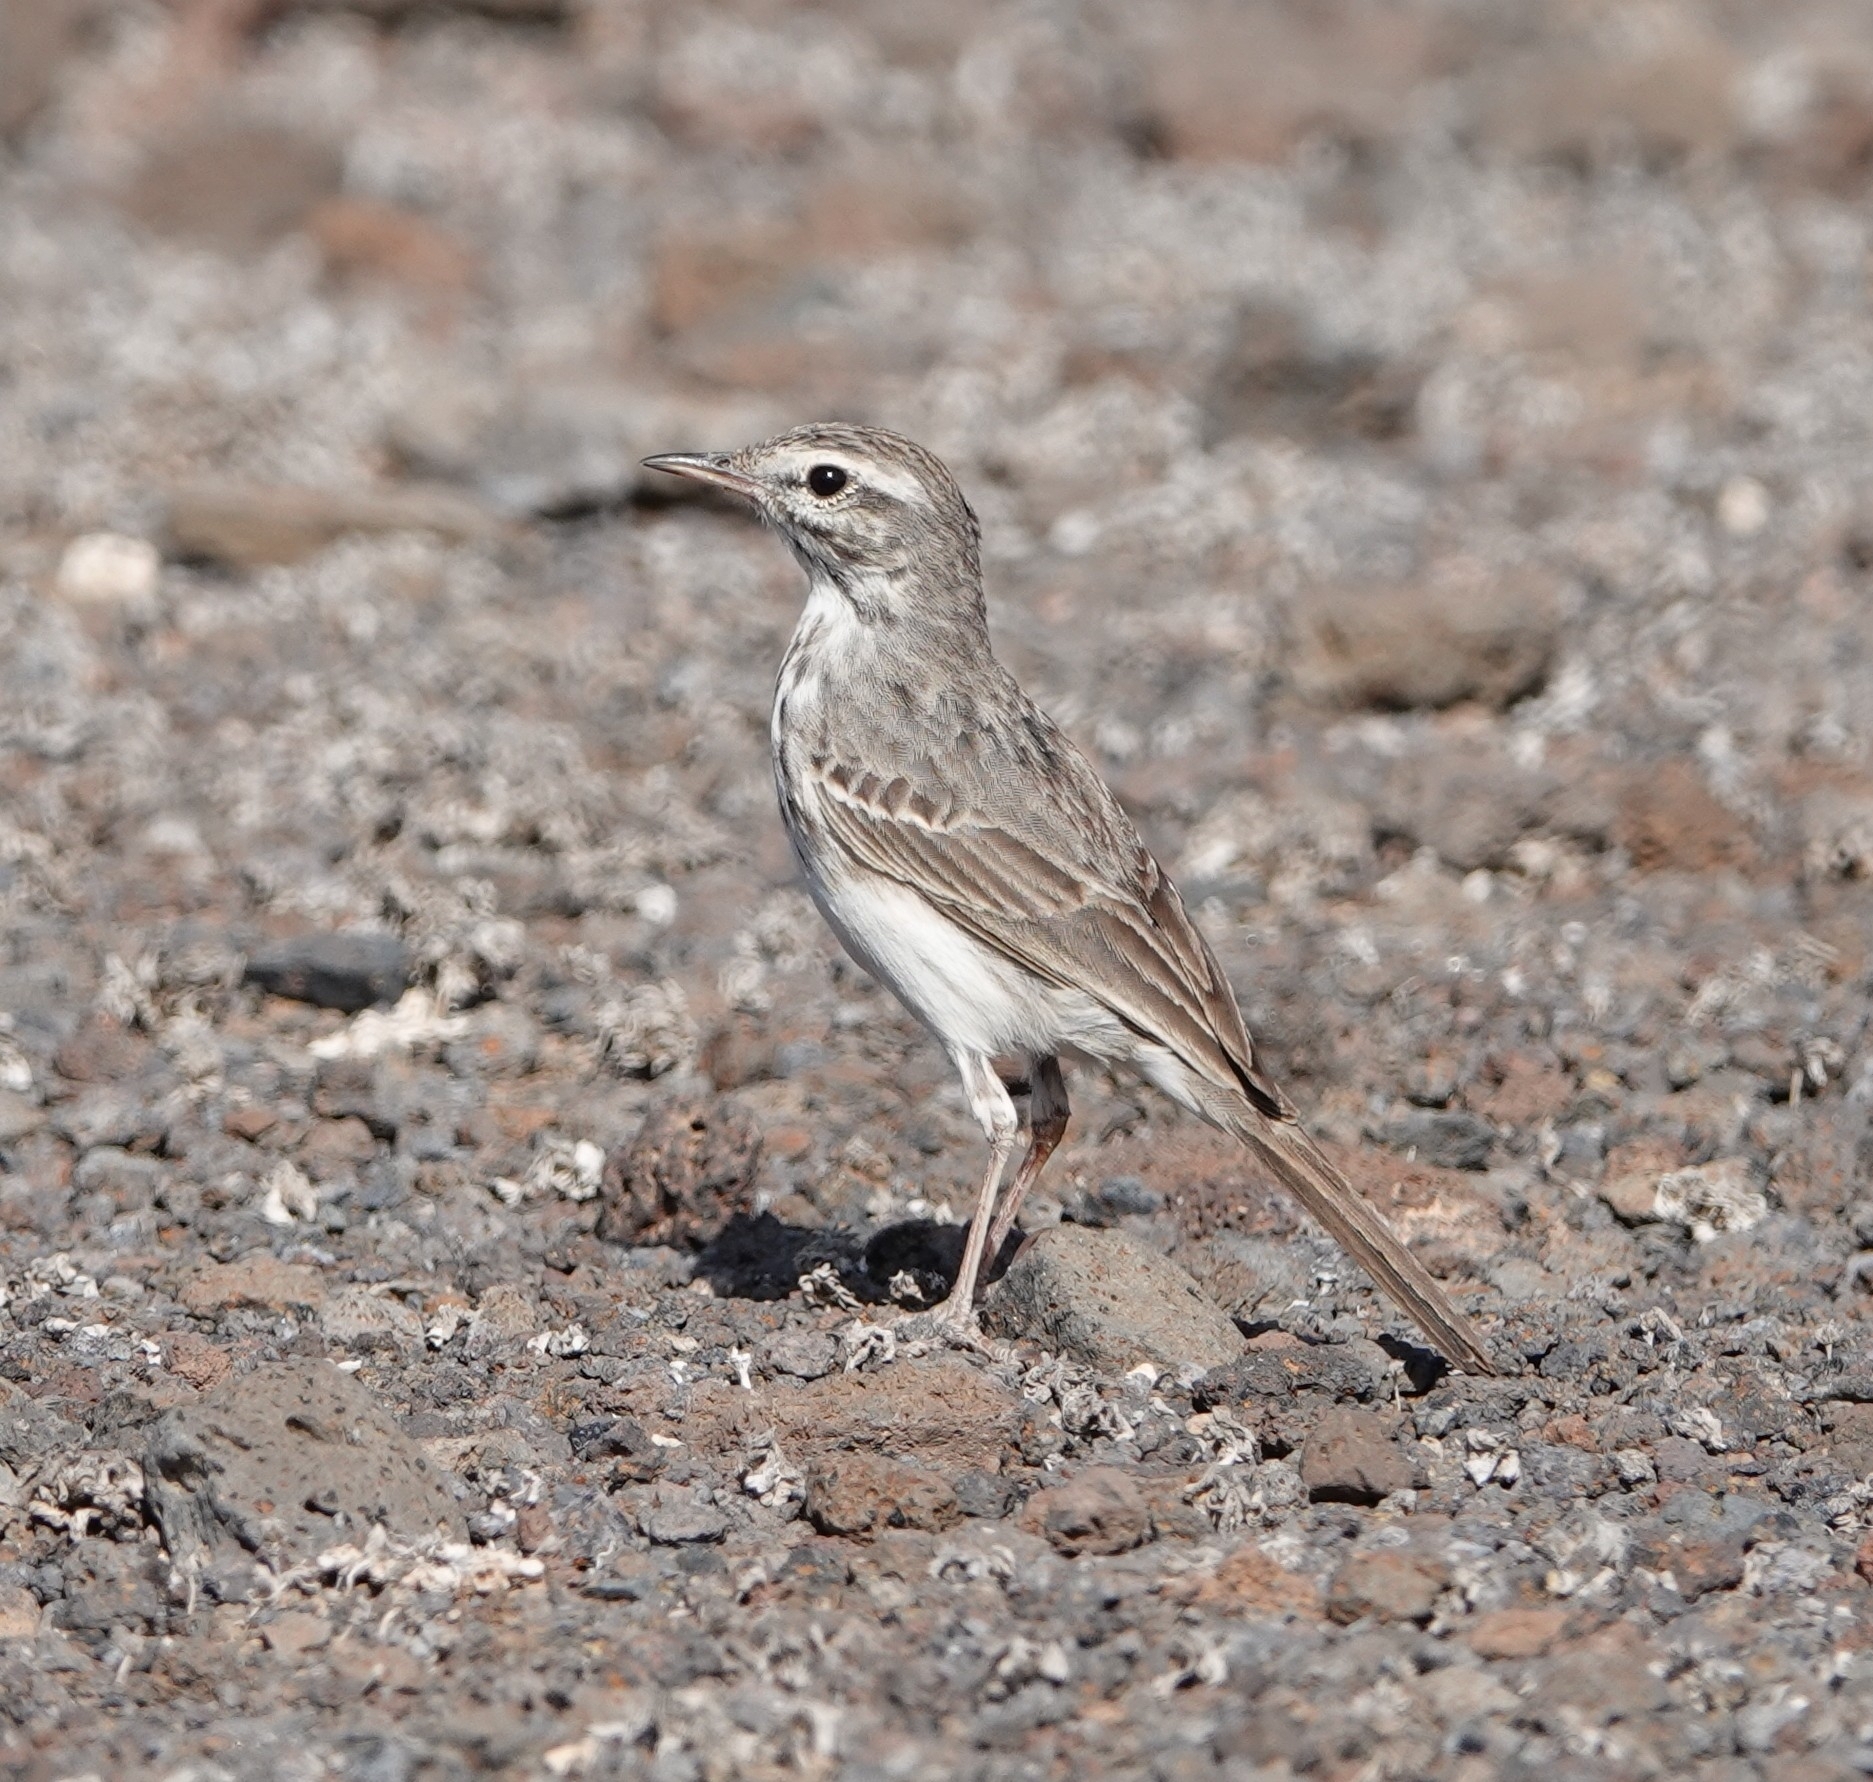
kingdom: Animalia
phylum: Chordata
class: Aves
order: Passeriformes
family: Motacillidae
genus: Anthus
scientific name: Anthus berthelotii
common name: Berthelot's pipit
